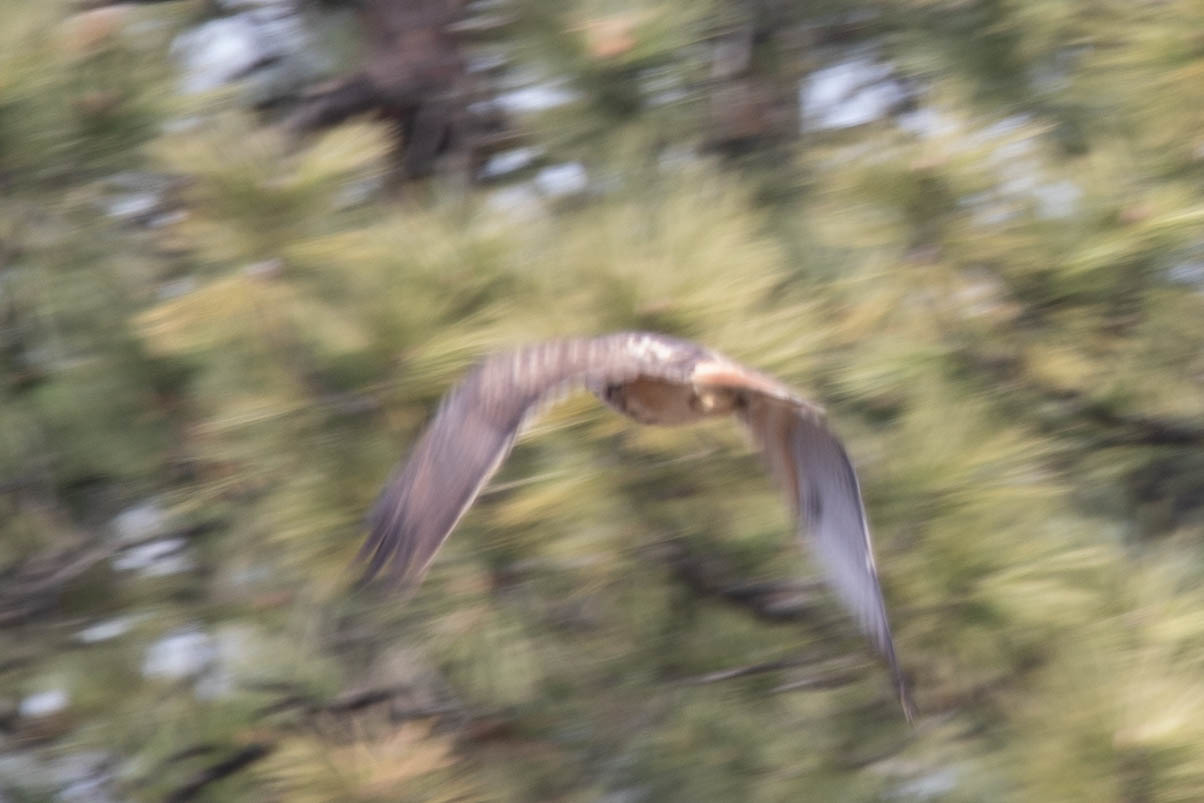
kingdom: Animalia
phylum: Chordata
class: Aves
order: Accipitriformes
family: Accipitridae
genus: Buteo
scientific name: Buteo jamaicensis
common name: Red-tailed hawk
